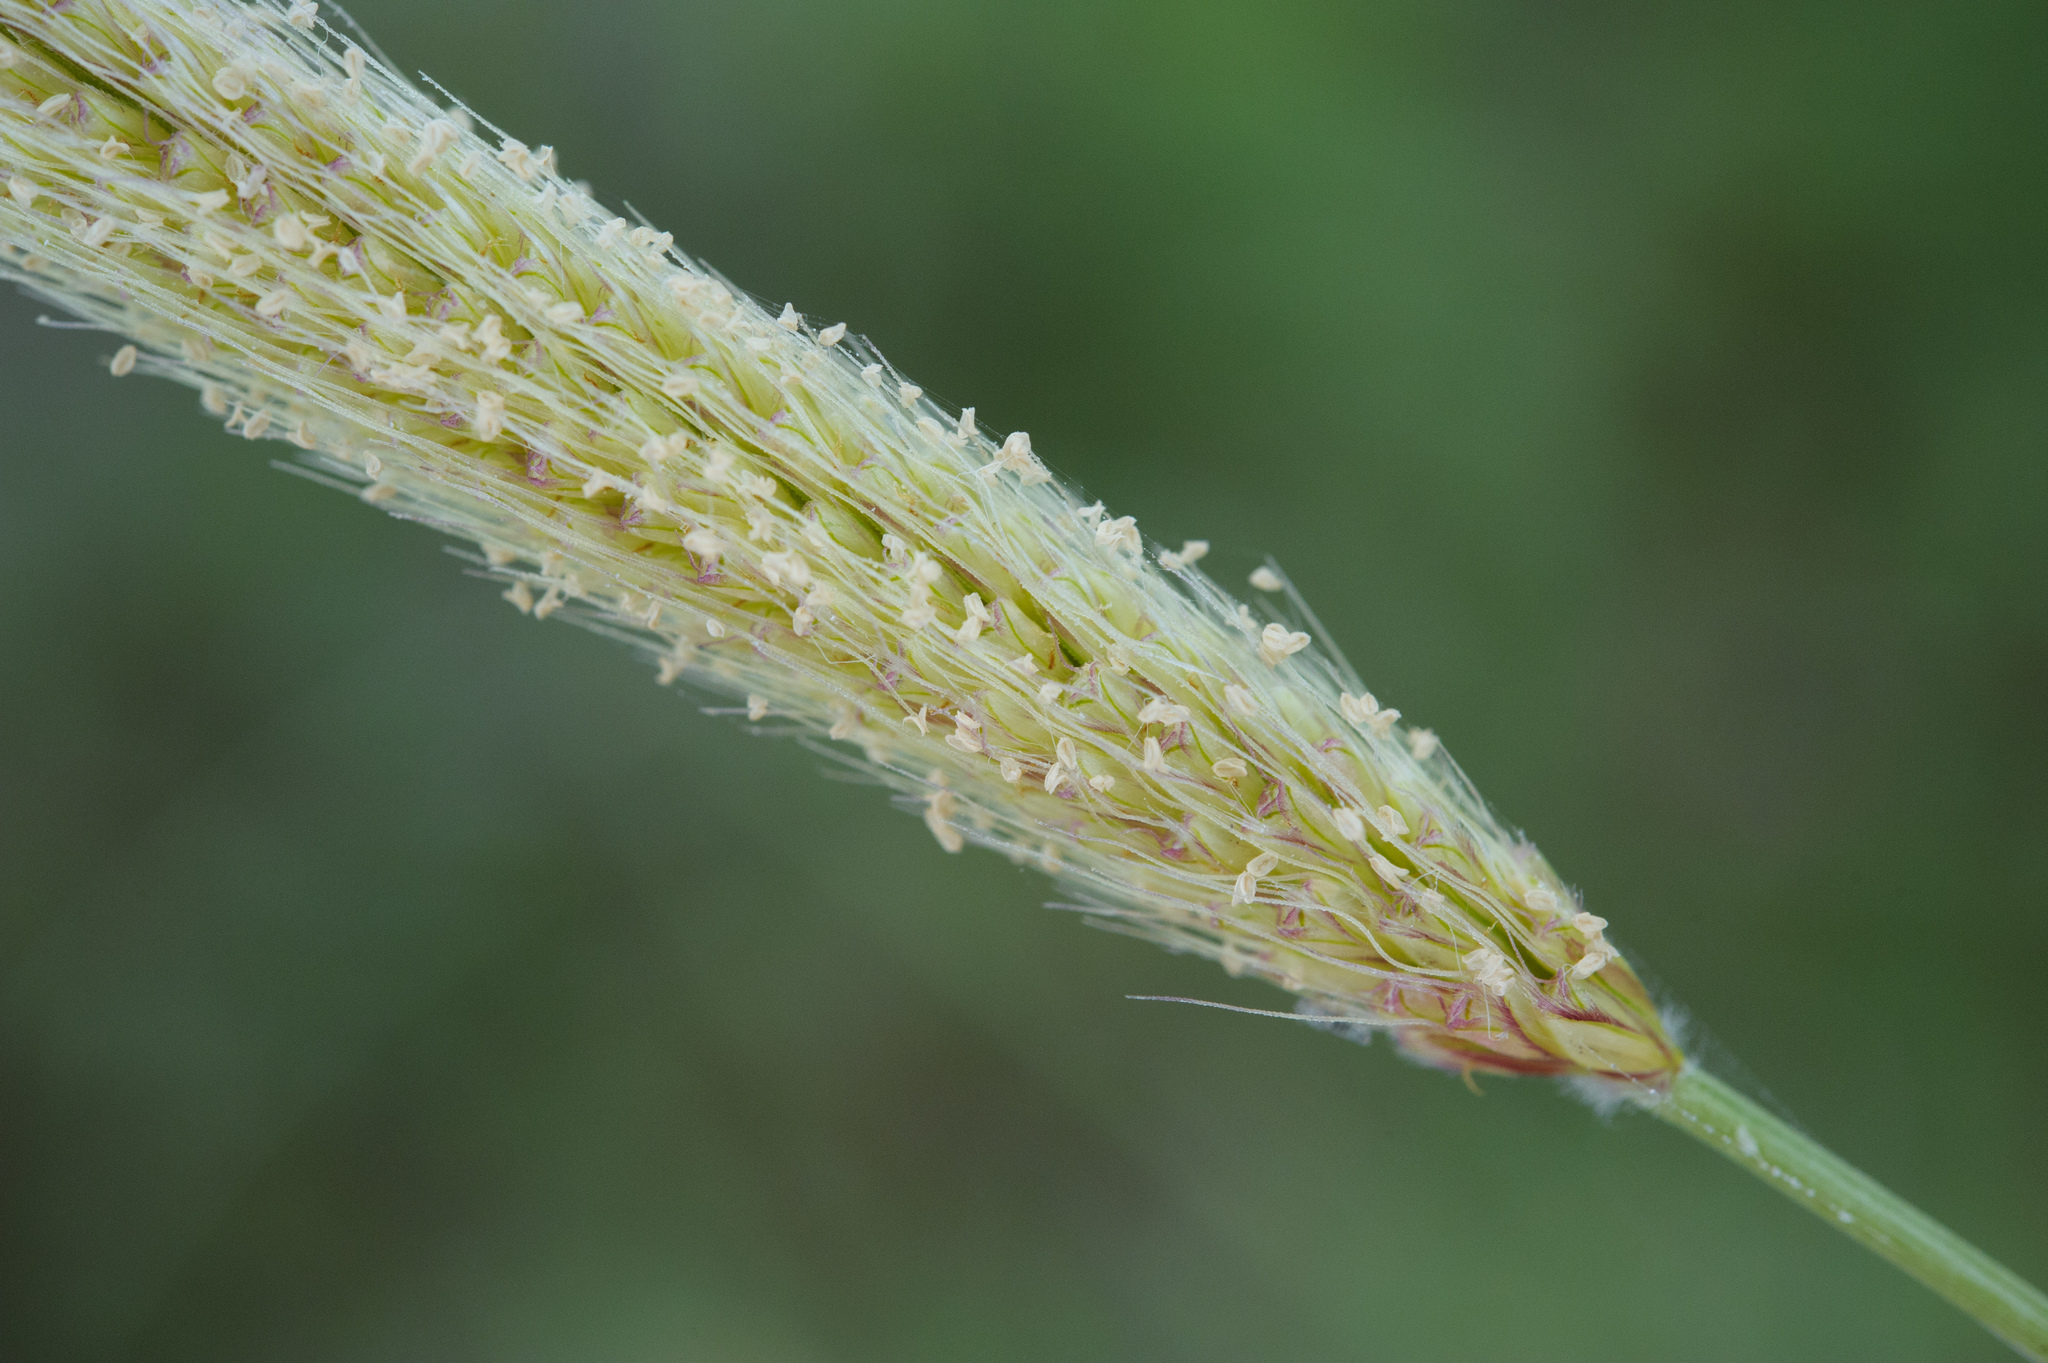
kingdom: Plantae
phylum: Tracheophyta
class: Liliopsida
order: Poales
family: Poaceae
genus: Chloris
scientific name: Chloris formosana
